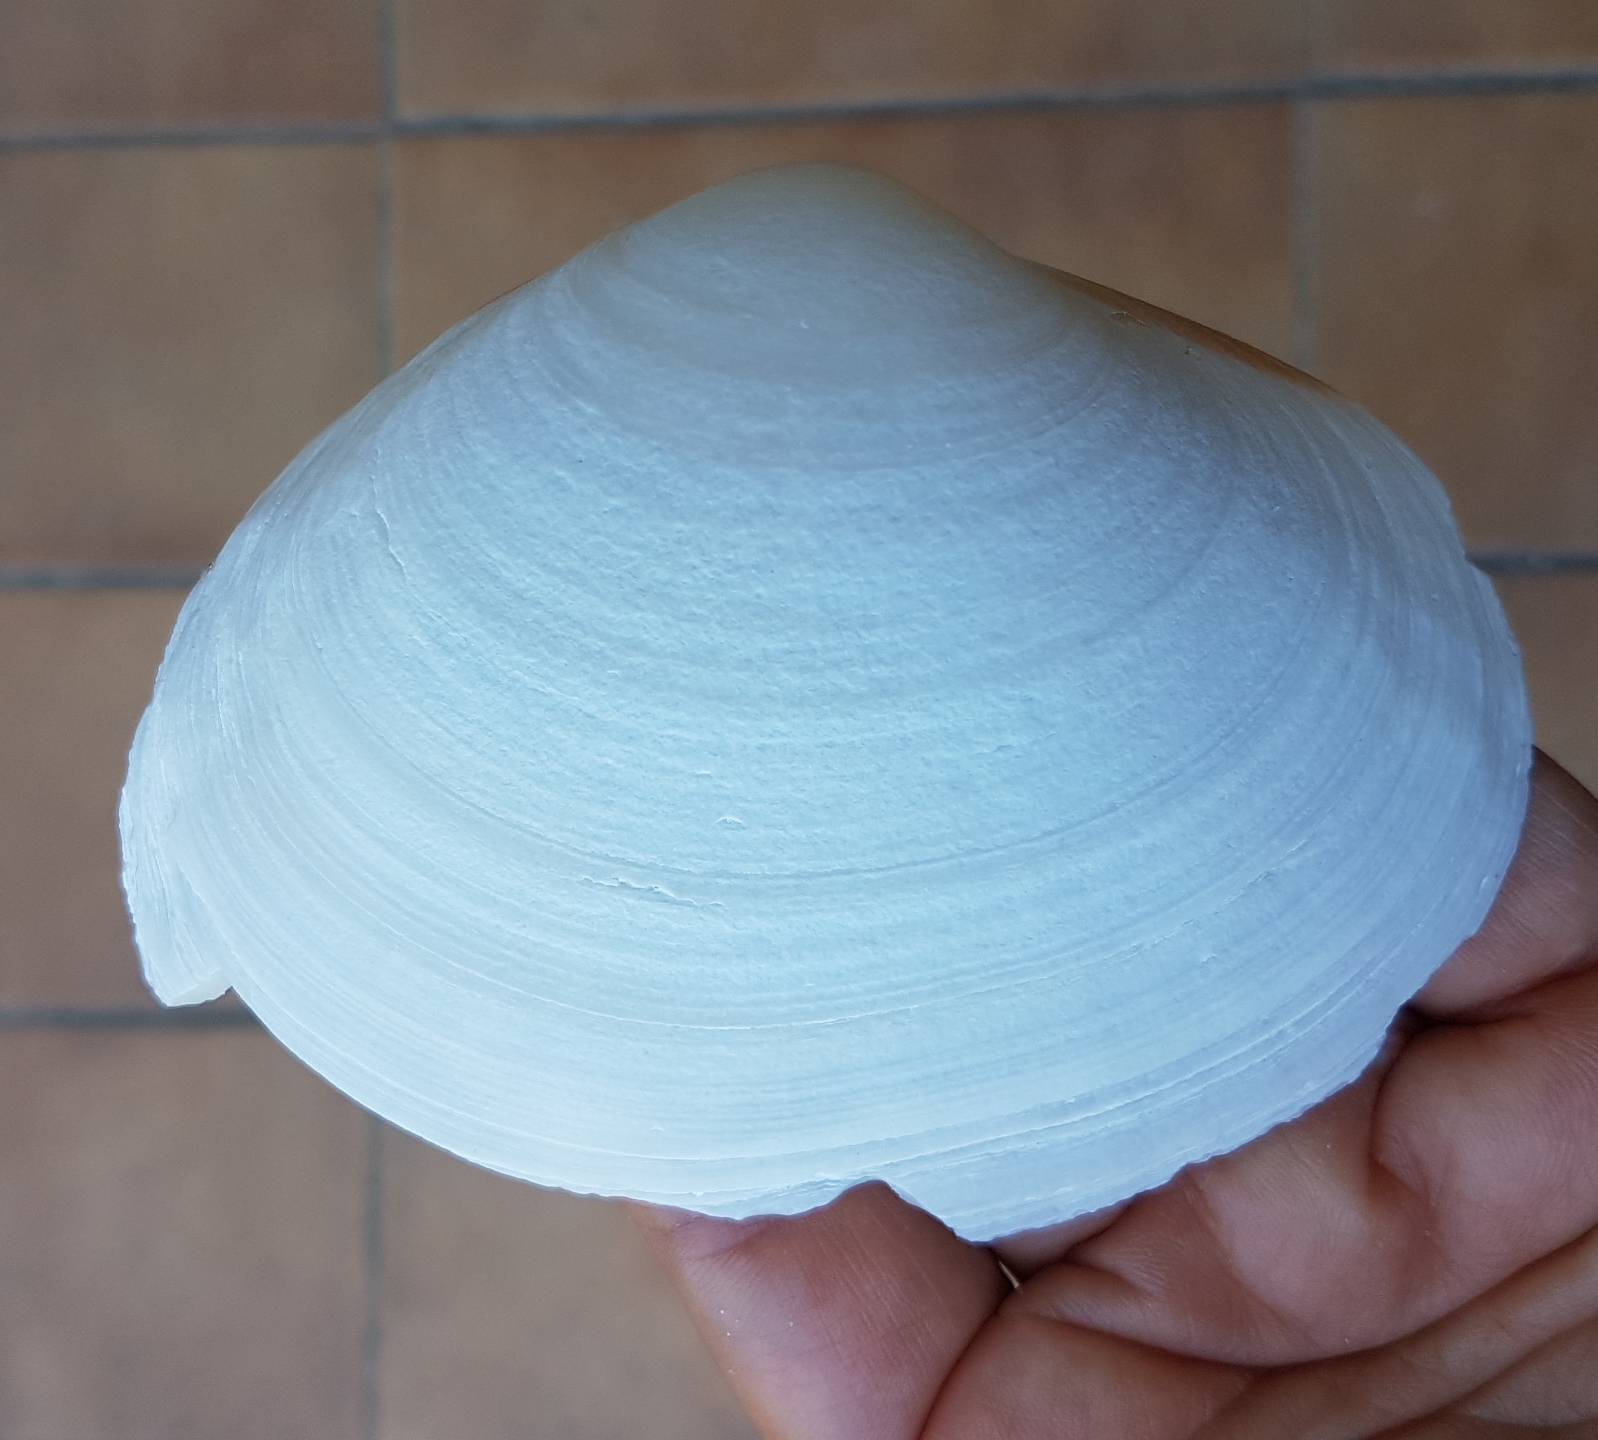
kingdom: Animalia
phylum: Mollusca
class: Bivalvia
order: Venerida
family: Mactridae
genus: Mactra
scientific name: Mactra glauca
